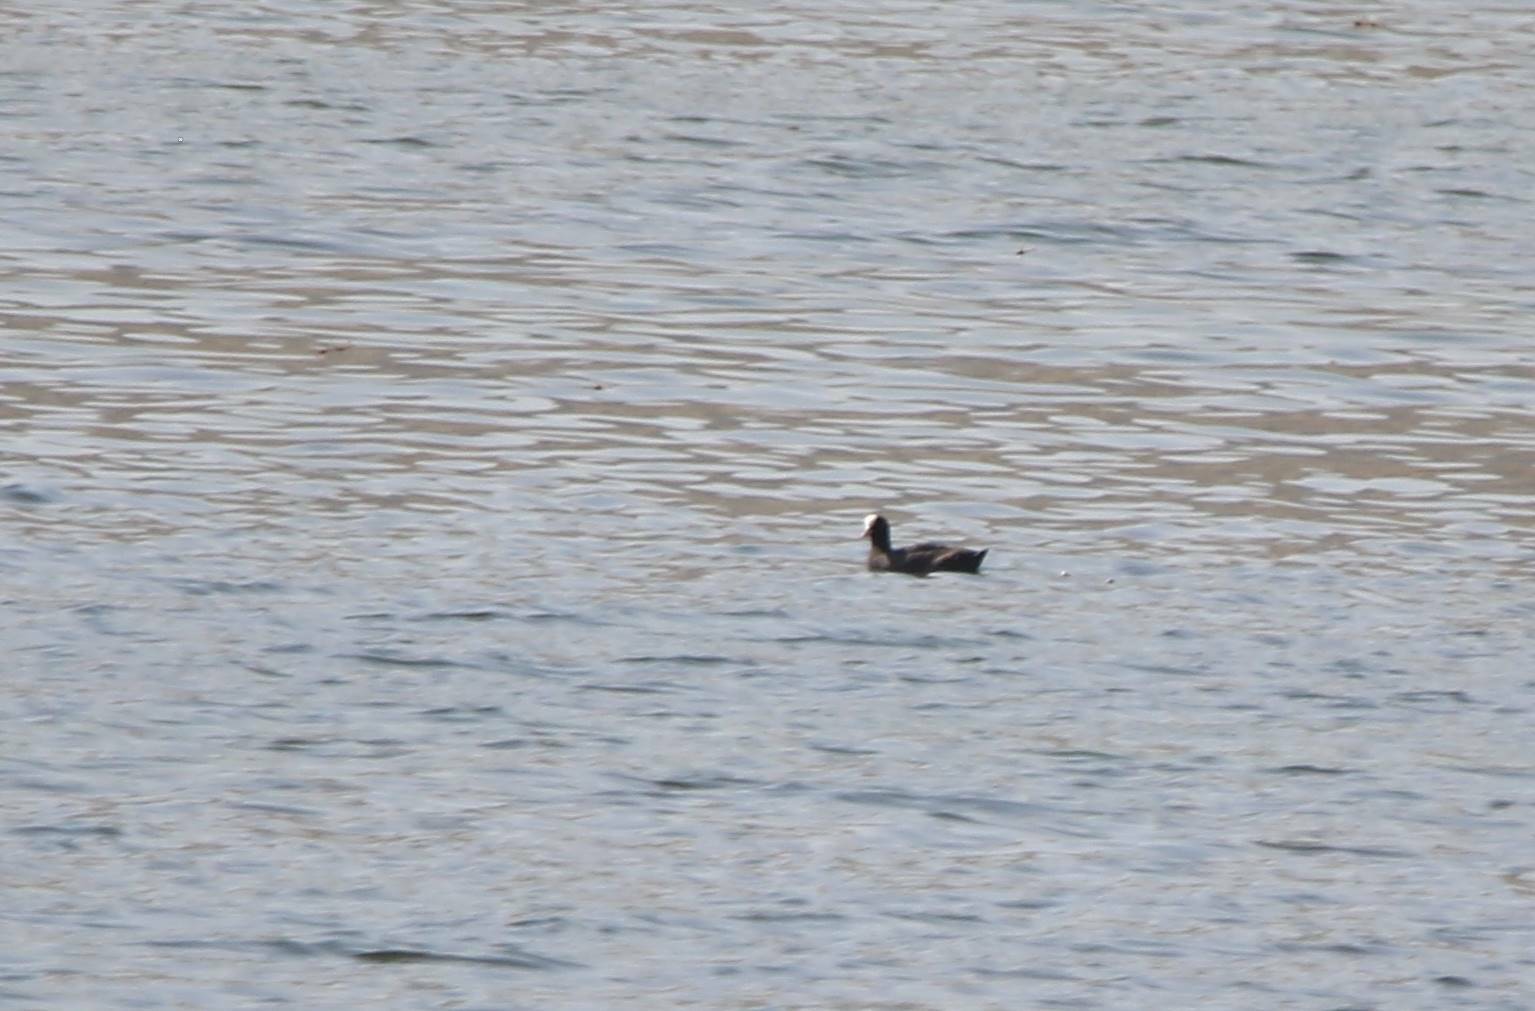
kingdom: Animalia
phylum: Chordata
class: Aves
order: Gruiformes
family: Rallidae
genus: Fulica
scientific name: Fulica atra
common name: Eurasian coot
